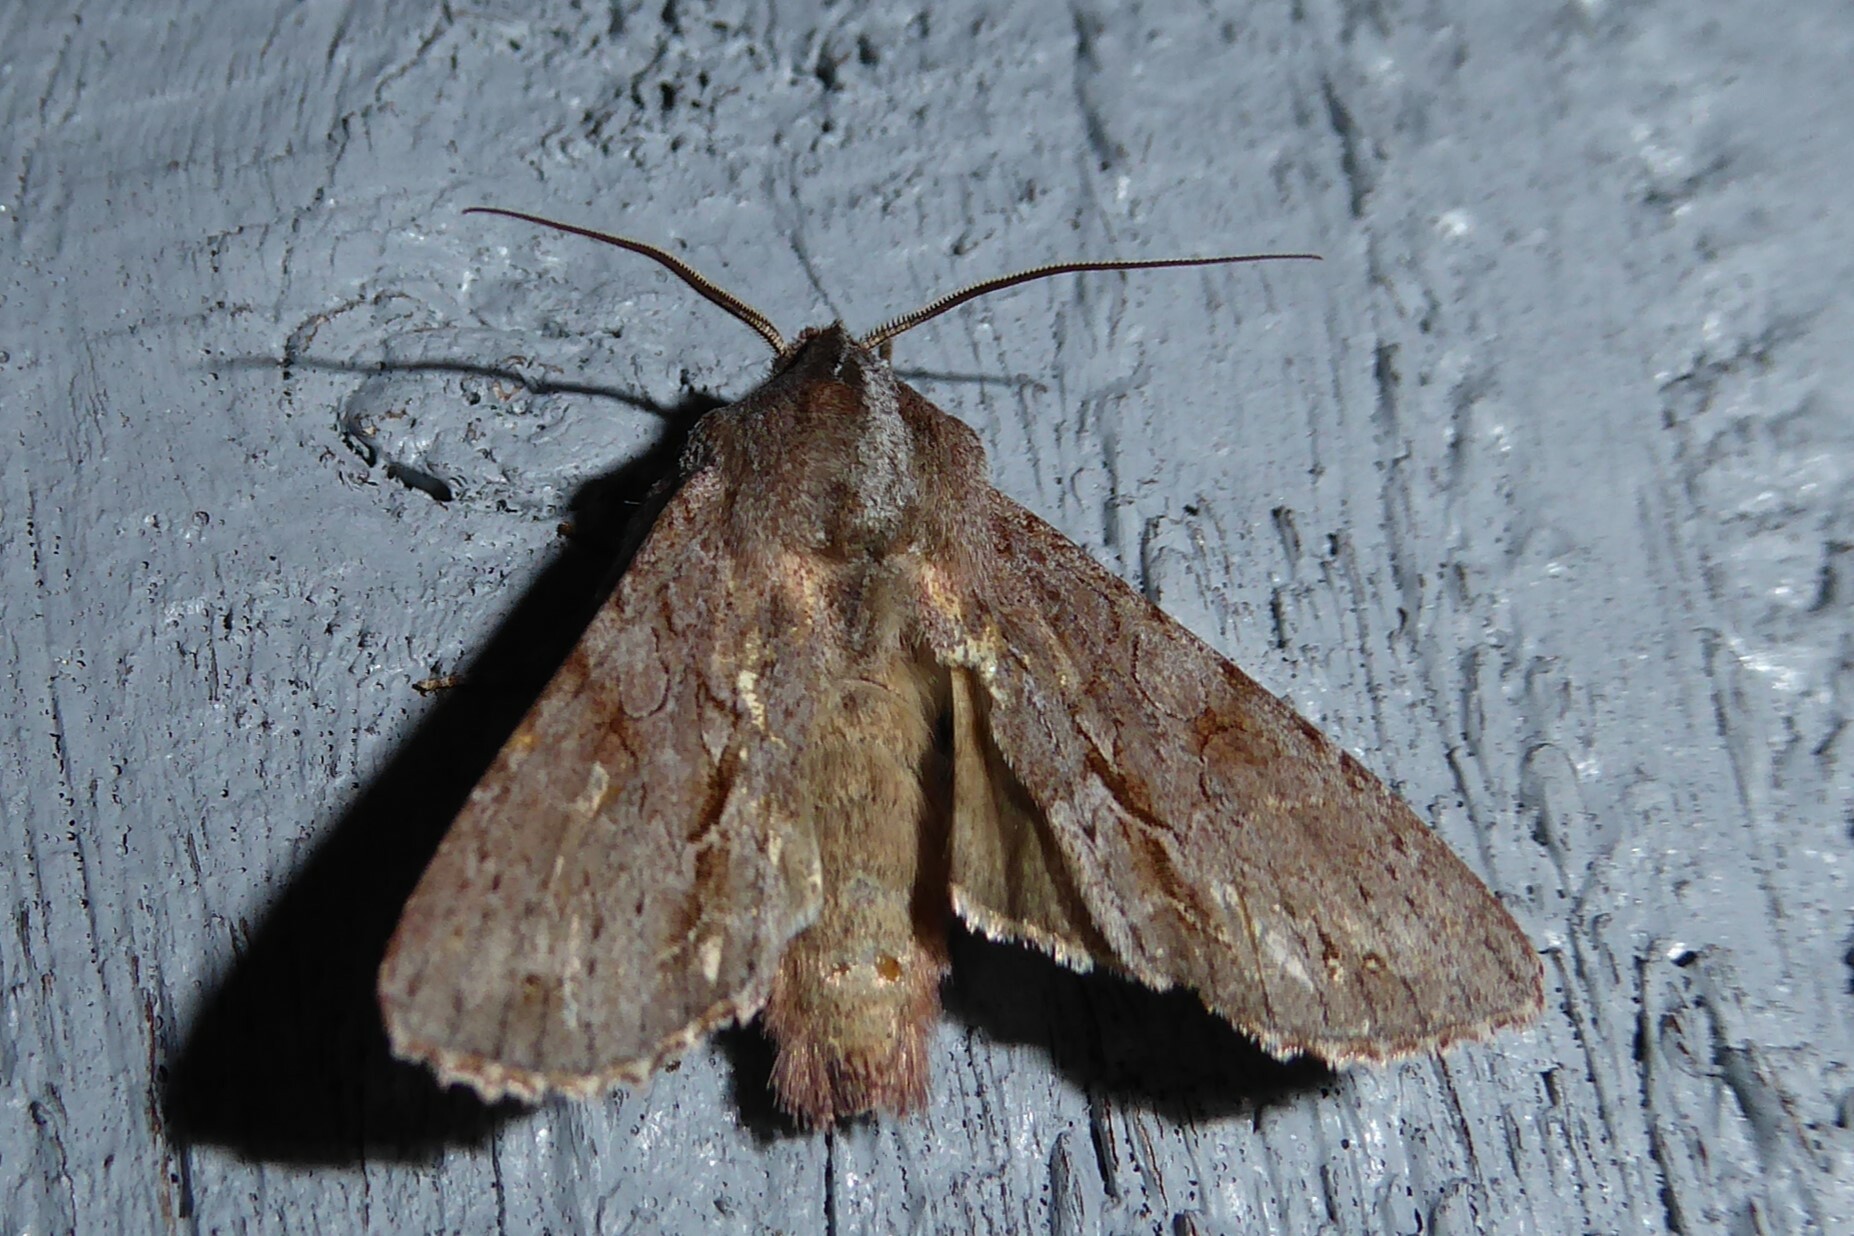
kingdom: Animalia
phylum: Arthropoda
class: Insecta
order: Lepidoptera
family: Noctuidae
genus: Ichneutica
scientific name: Ichneutica
